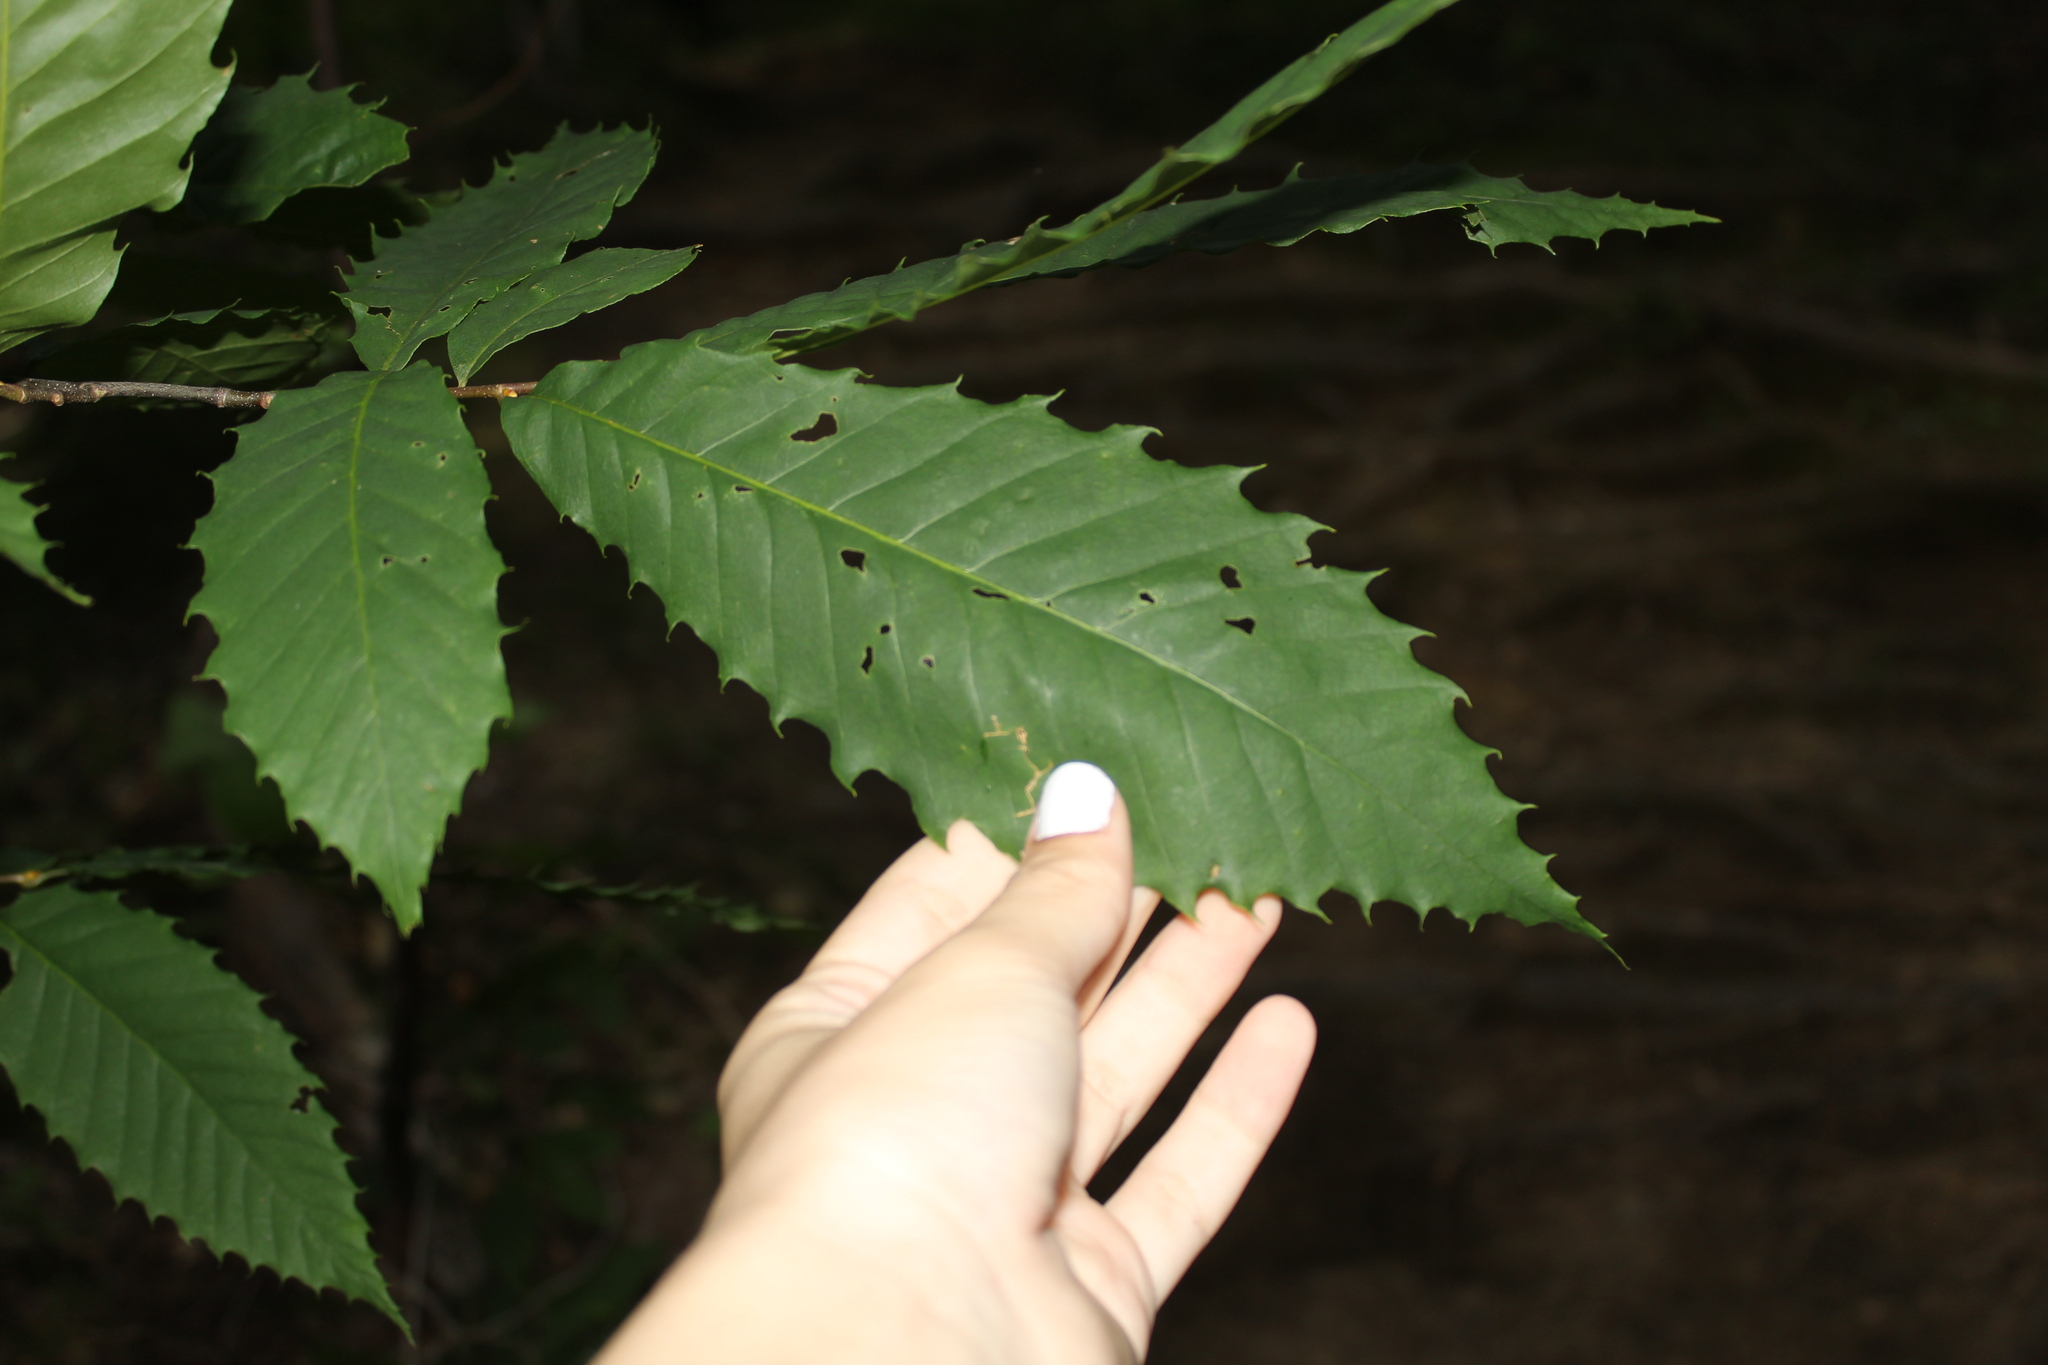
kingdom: Plantae
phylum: Tracheophyta
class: Magnoliopsida
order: Fagales
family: Fagaceae
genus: Castanea
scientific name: Castanea dentata
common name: American chestnut
